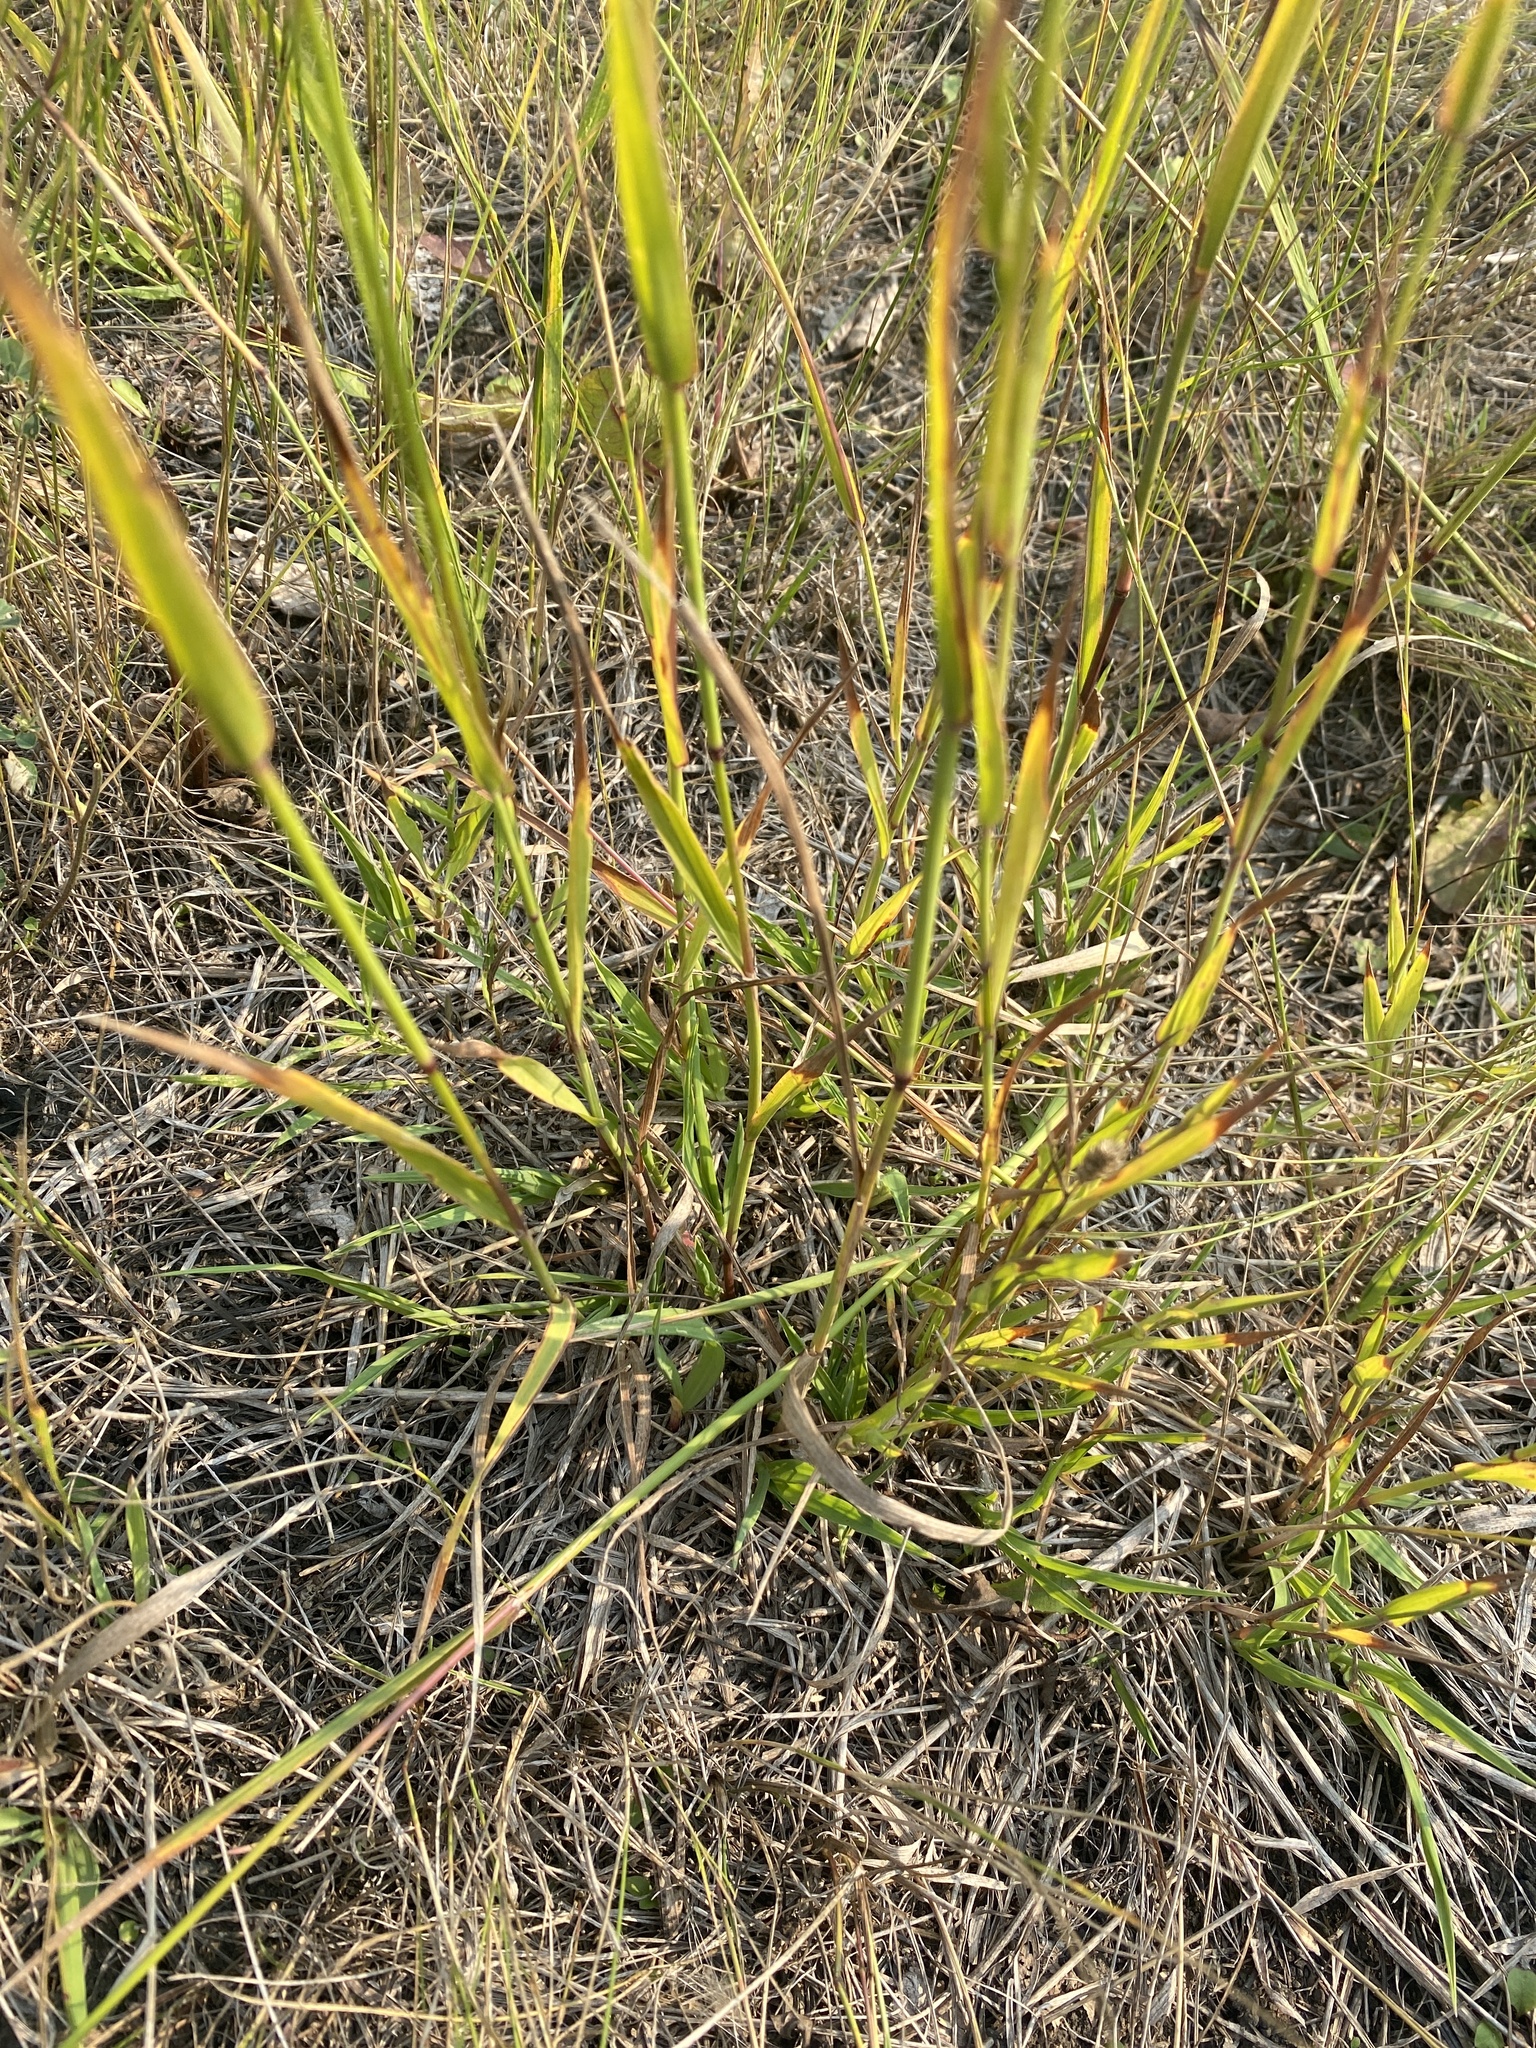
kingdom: Plantae
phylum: Tracheophyta
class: Liliopsida
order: Poales
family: Poaceae
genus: Phleum
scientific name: Phleum pratense
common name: Timothy grass
